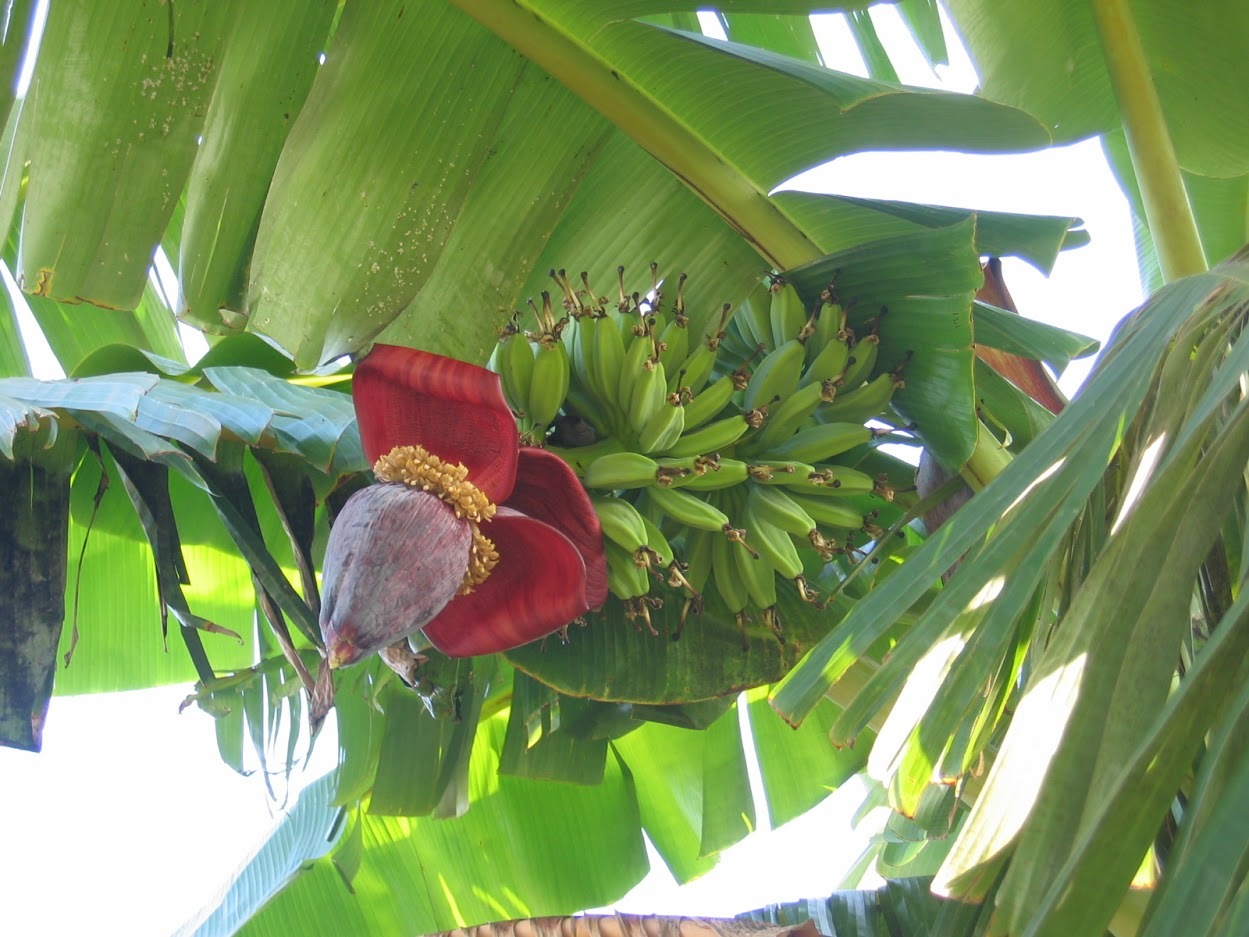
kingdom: Plantae
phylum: Tracheophyta
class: Liliopsida
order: Zingiberales
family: Musaceae
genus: Musa
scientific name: Musa paradisiaca
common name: French plantain
